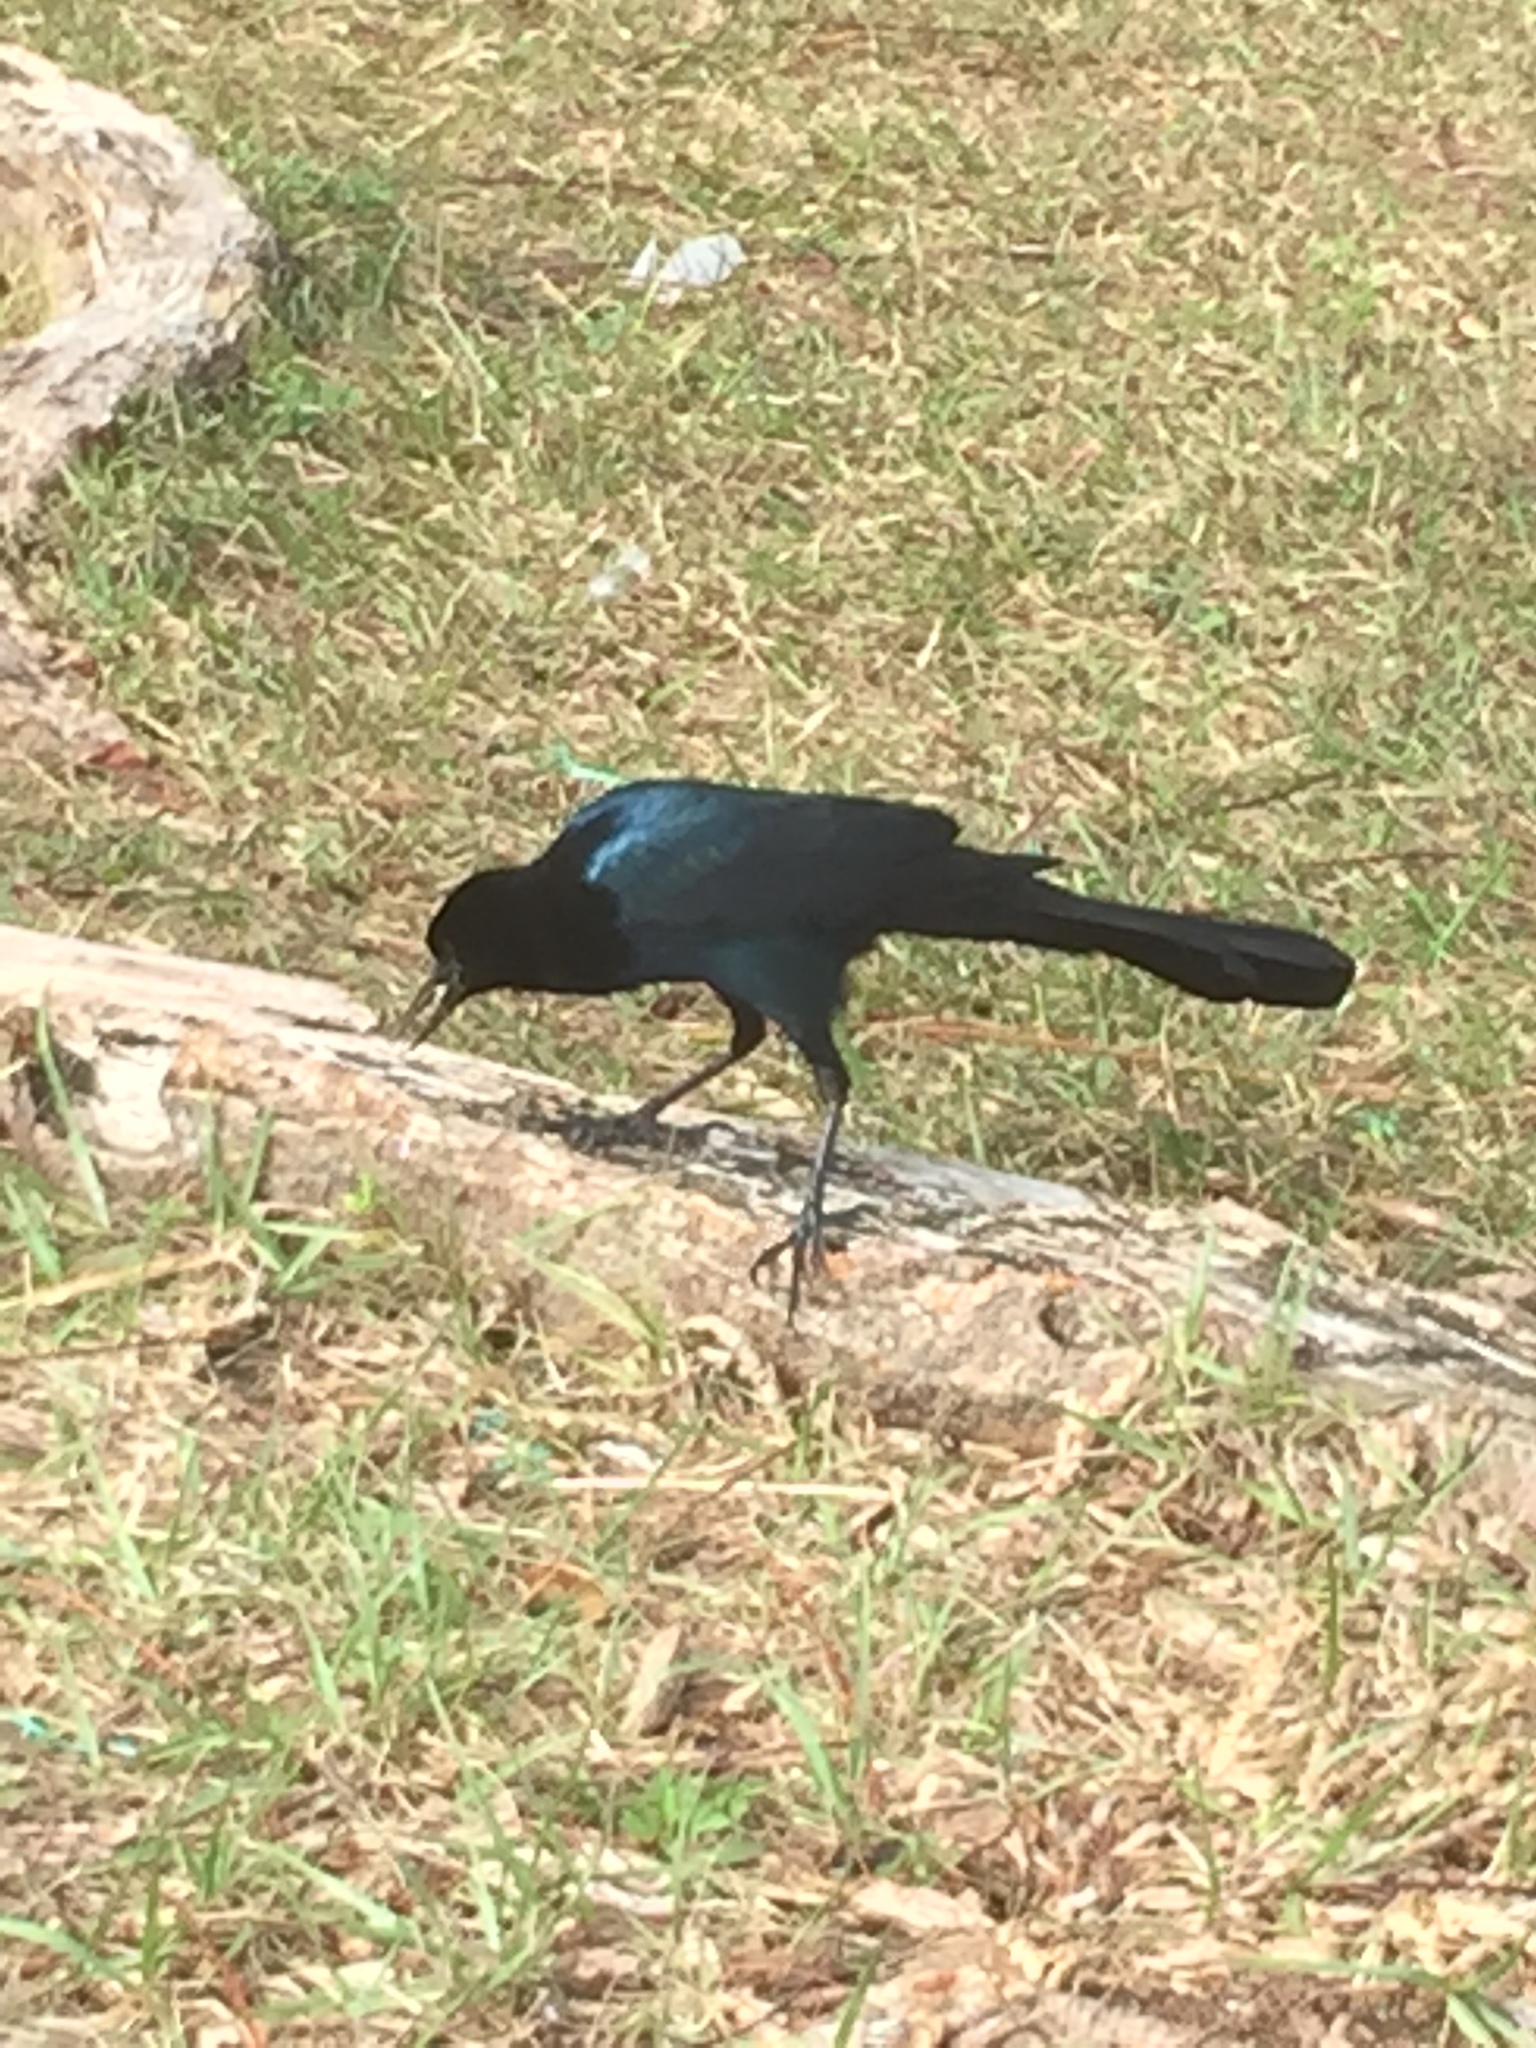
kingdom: Animalia
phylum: Chordata
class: Aves
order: Passeriformes
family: Icteridae
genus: Quiscalus
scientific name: Quiscalus major
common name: Boat-tailed grackle
